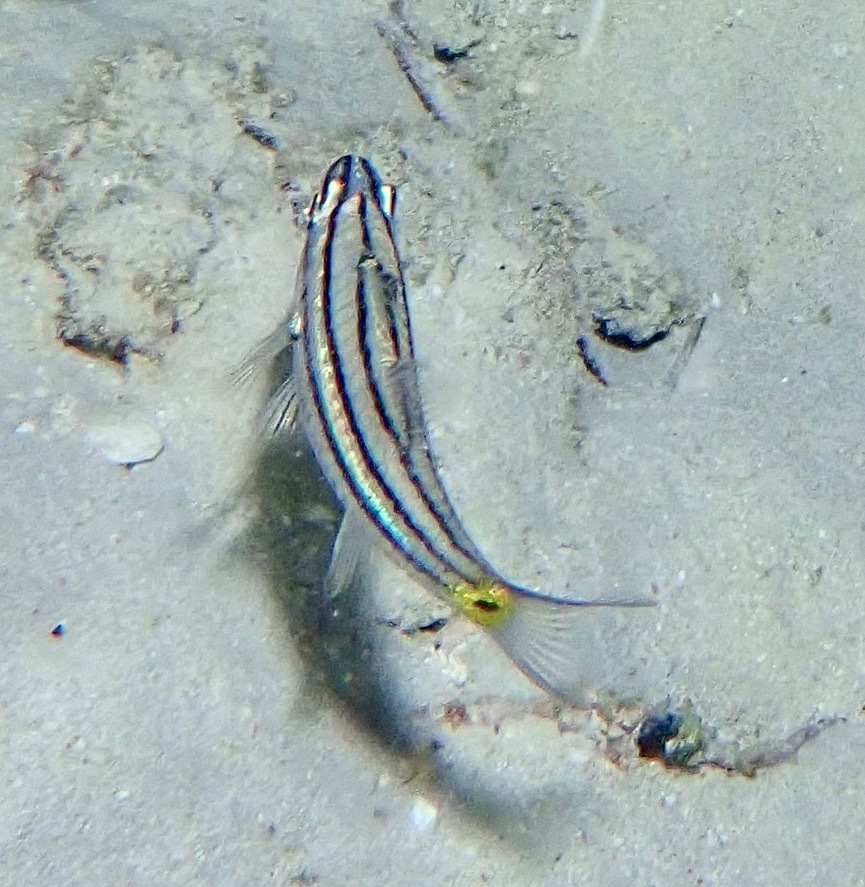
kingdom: Animalia
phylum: Chordata
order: Perciformes
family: Apogonidae
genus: Cheilodipterus
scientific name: Cheilodipterus quinquelineatus
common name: Five-lined cardinalfish
